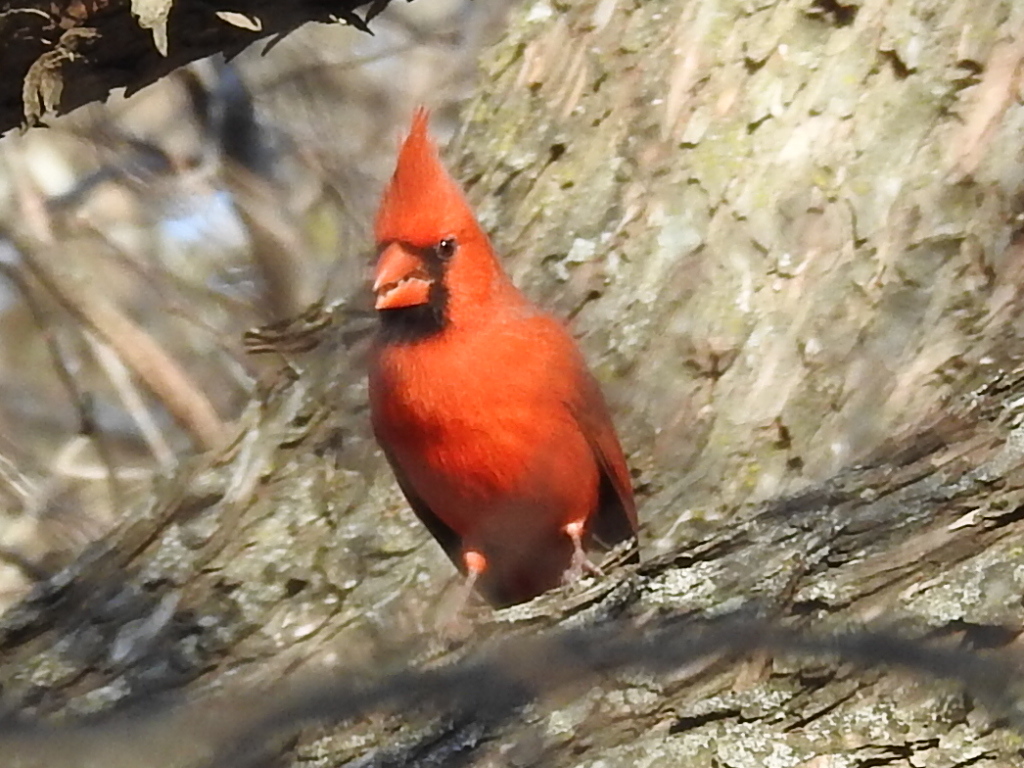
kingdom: Animalia
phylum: Chordata
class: Aves
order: Passeriformes
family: Cardinalidae
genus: Cardinalis
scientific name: Cardinalis cardinalis
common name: Northern cardinal
